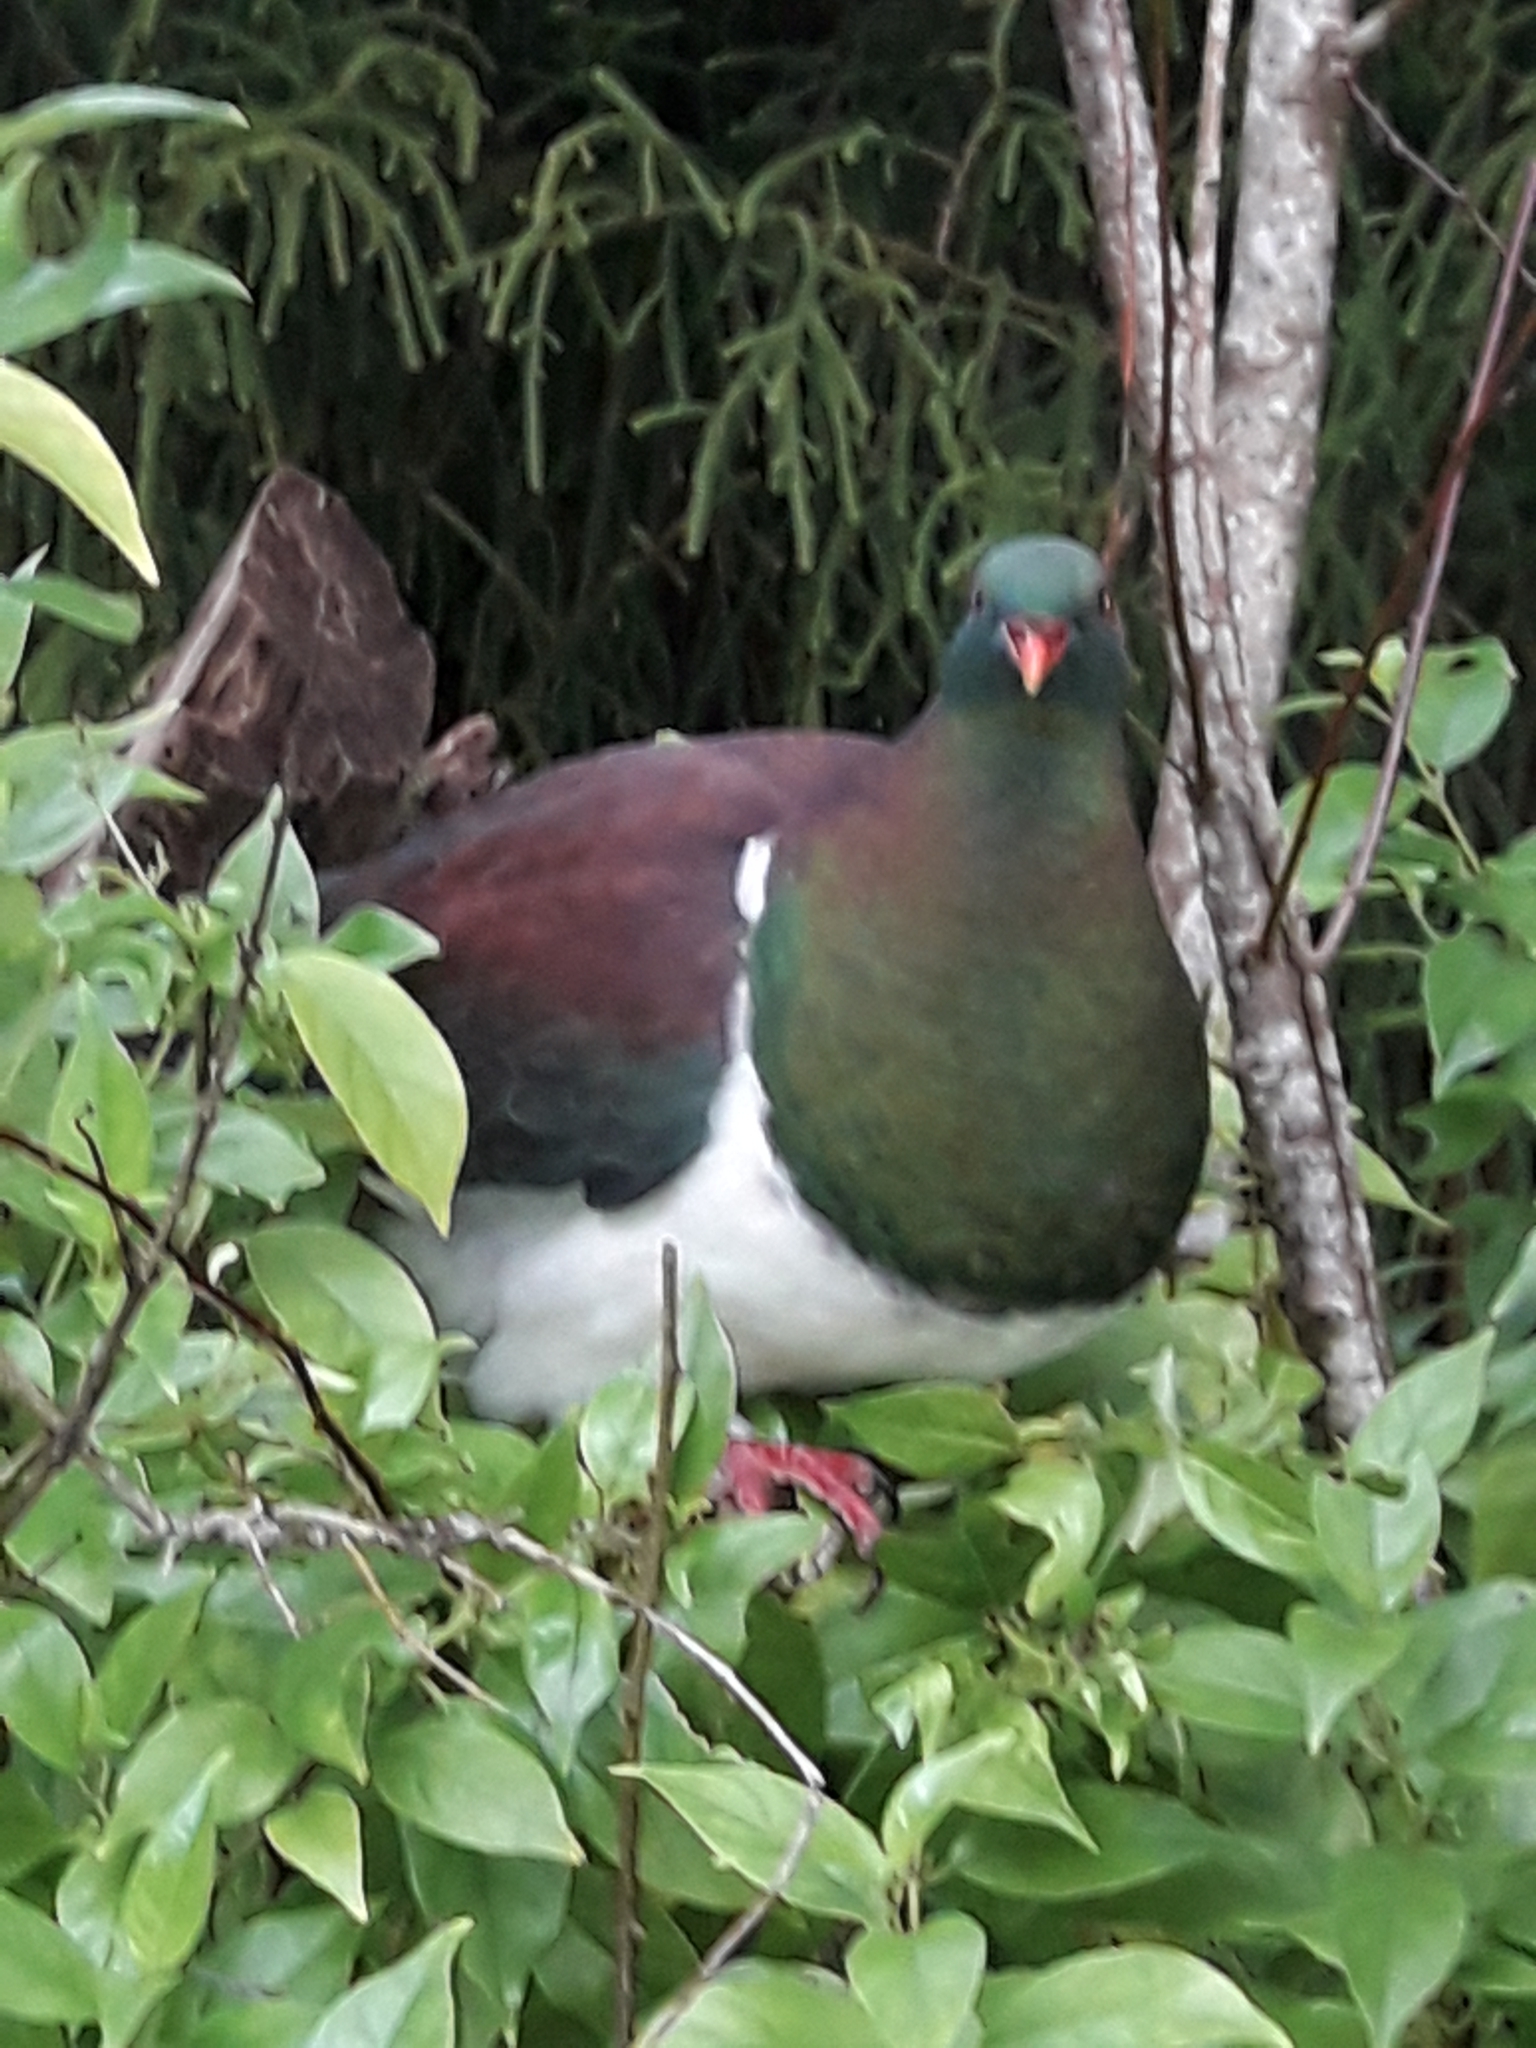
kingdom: Animalia
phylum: Chordata
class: Aves
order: Columbiformes
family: Columbidae
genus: Hemiphaga
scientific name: Hemiphaga novaeseelandiae
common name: New zealand pigeon
